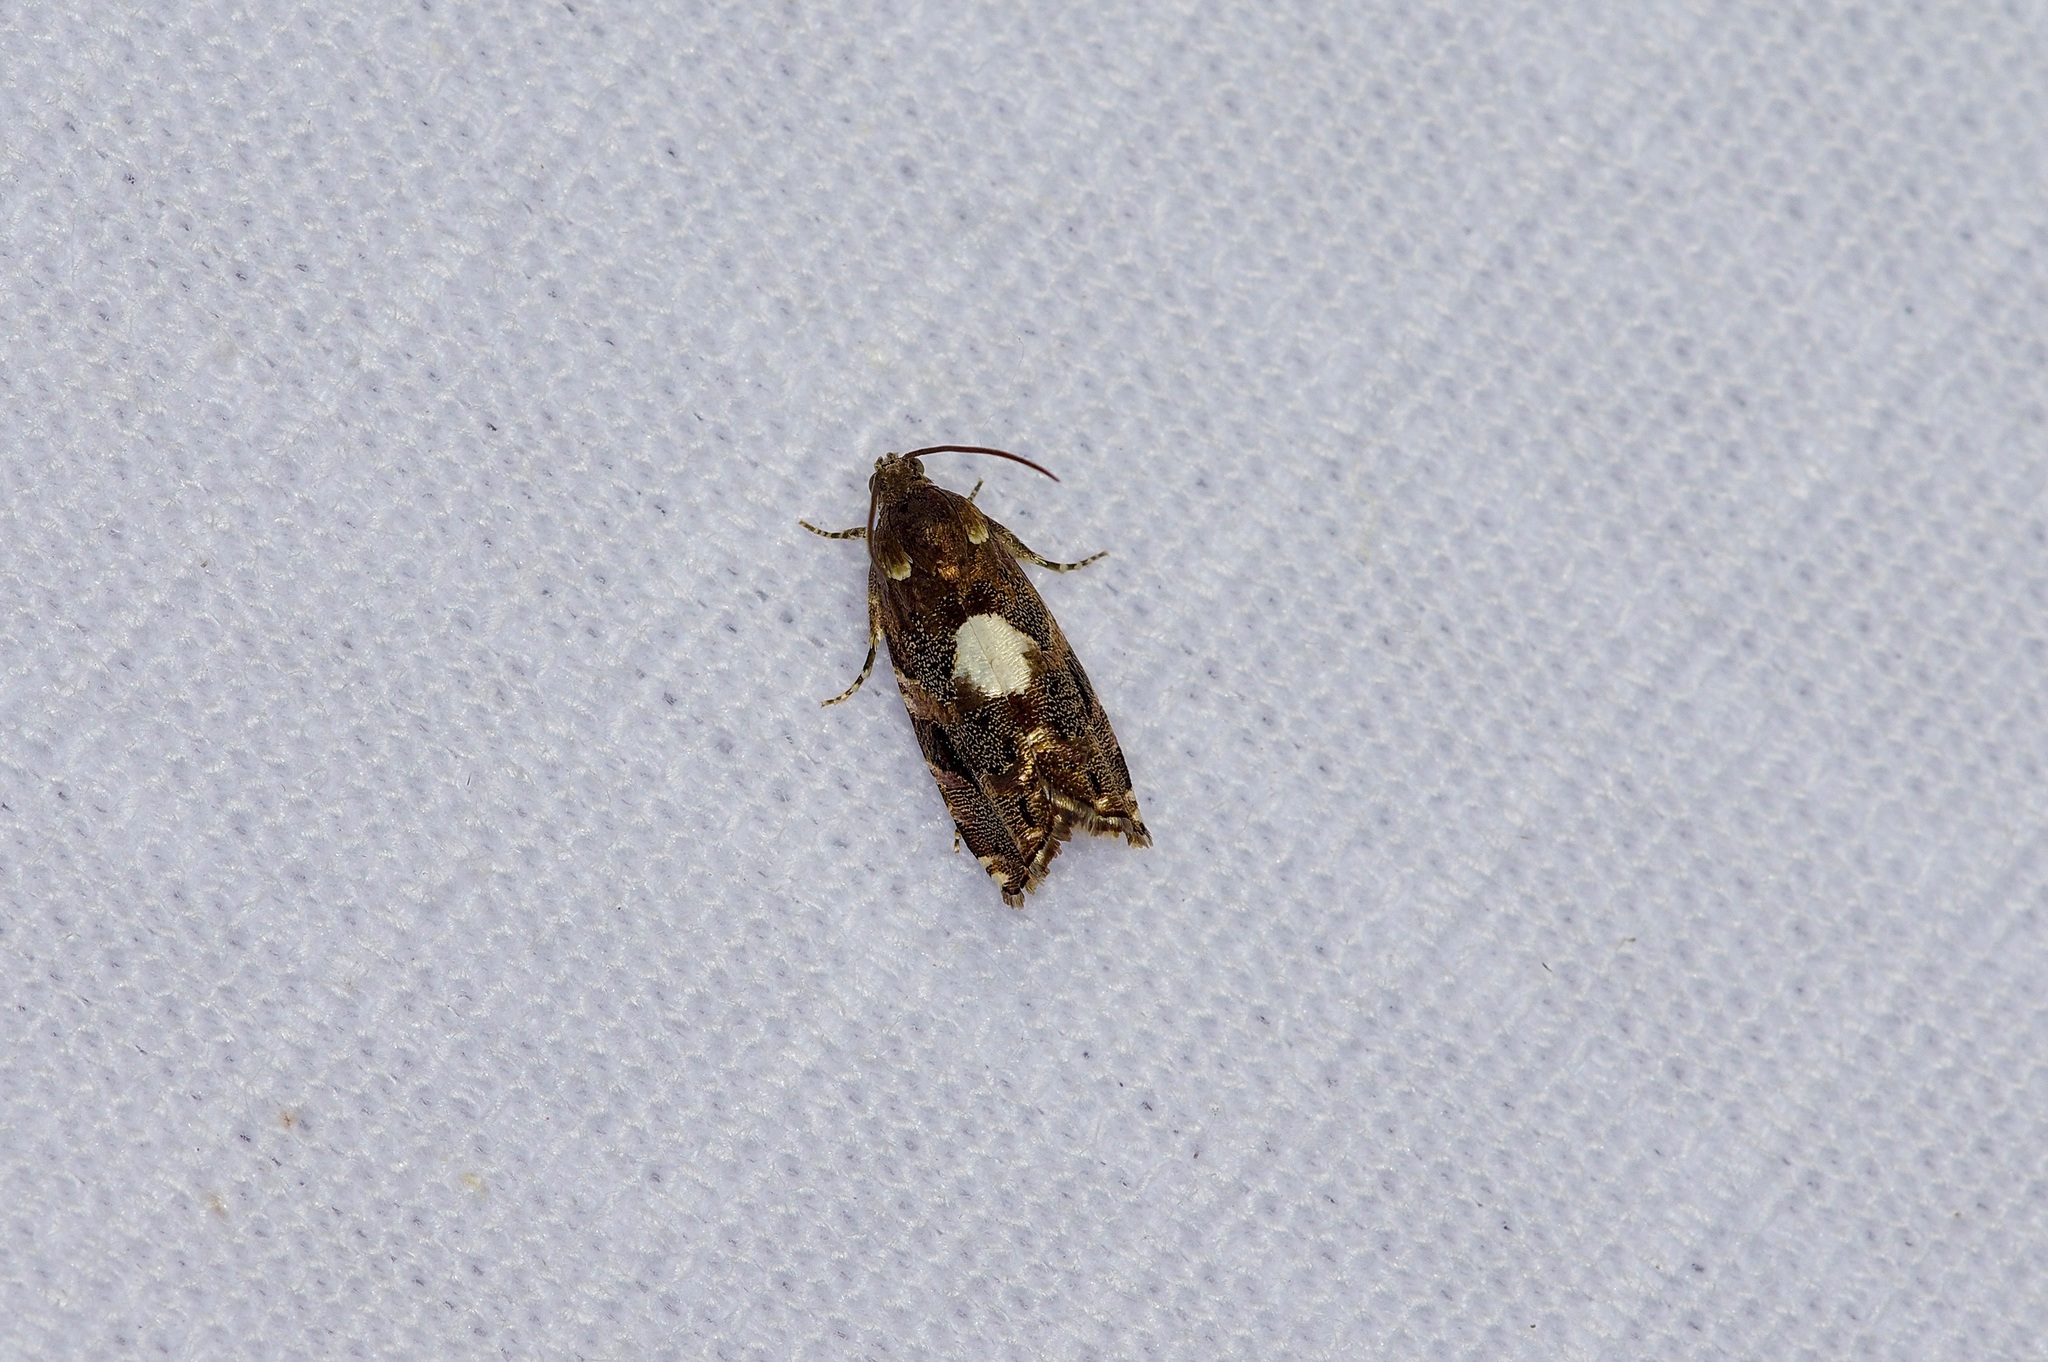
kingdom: Animalia
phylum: Arthropoda
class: Insecta
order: Lepidoptera
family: Tortricidae
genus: Cydia
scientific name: Cydia albimaculana
